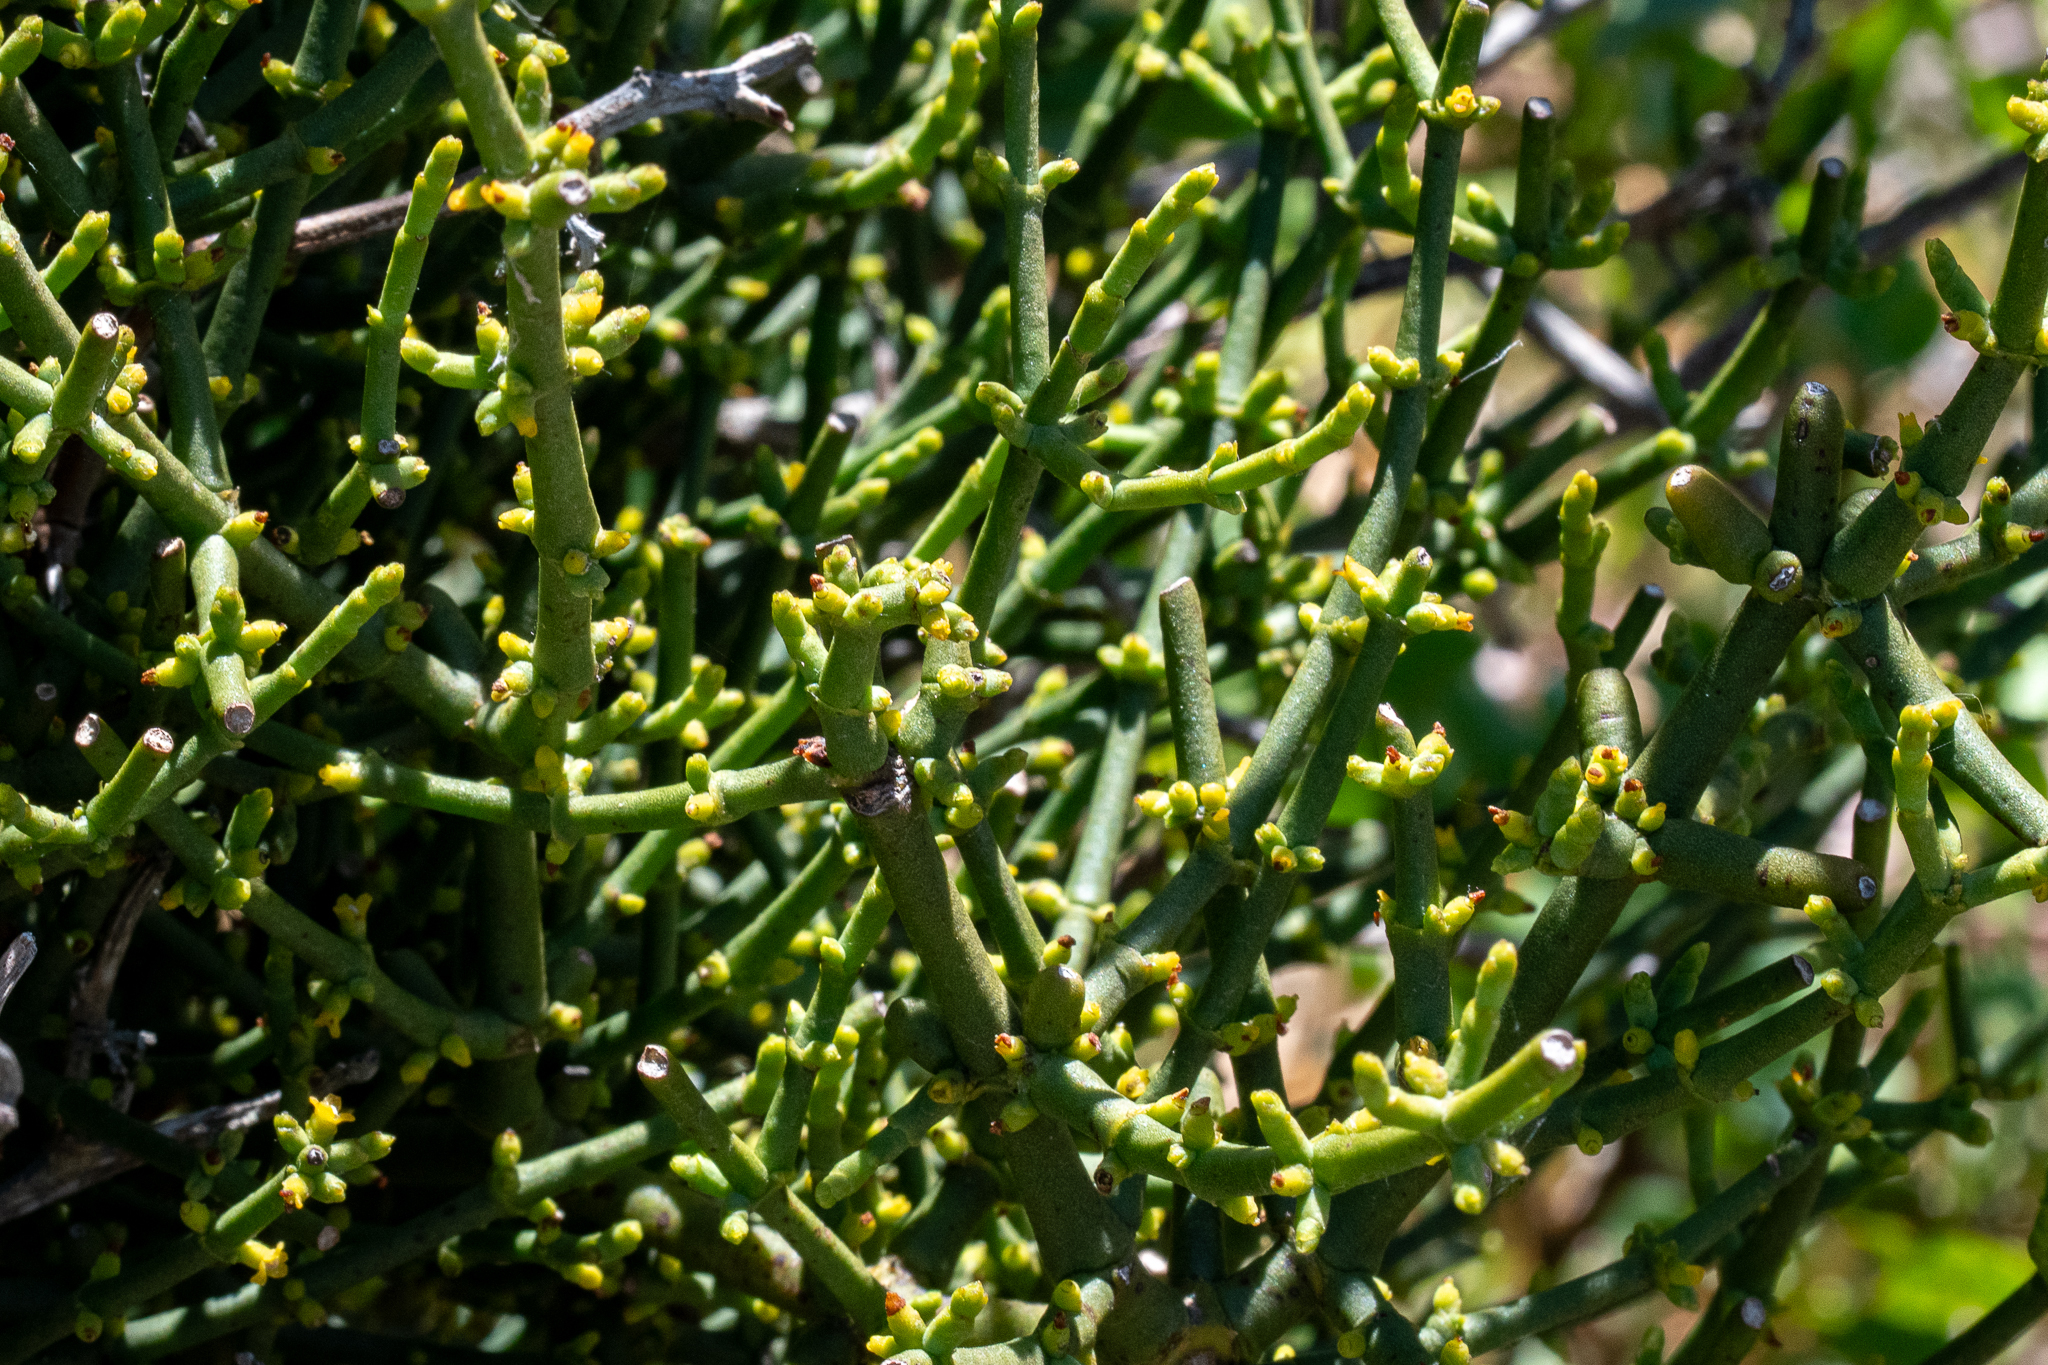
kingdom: Plantae
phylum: Tracheophyta
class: Magnoliopsida
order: Santalales
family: Viscaceae
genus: Viscum
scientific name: Viscum capense
